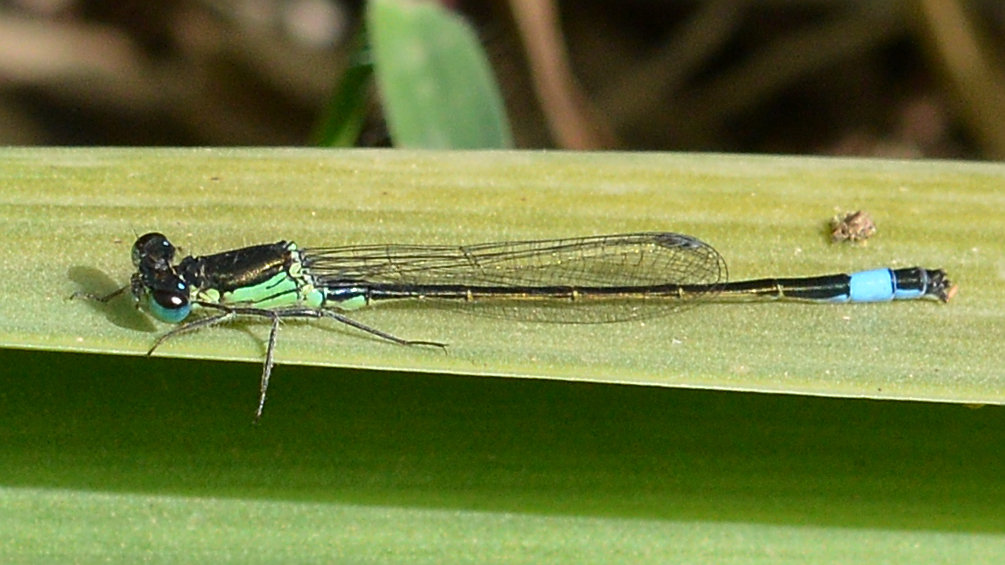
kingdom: Animalia
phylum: Arthropoda
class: Insecta
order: Odonata
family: Coenagrionidae
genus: Ischnura
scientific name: Ischnura elegans
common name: Blue-tailed damselfly
